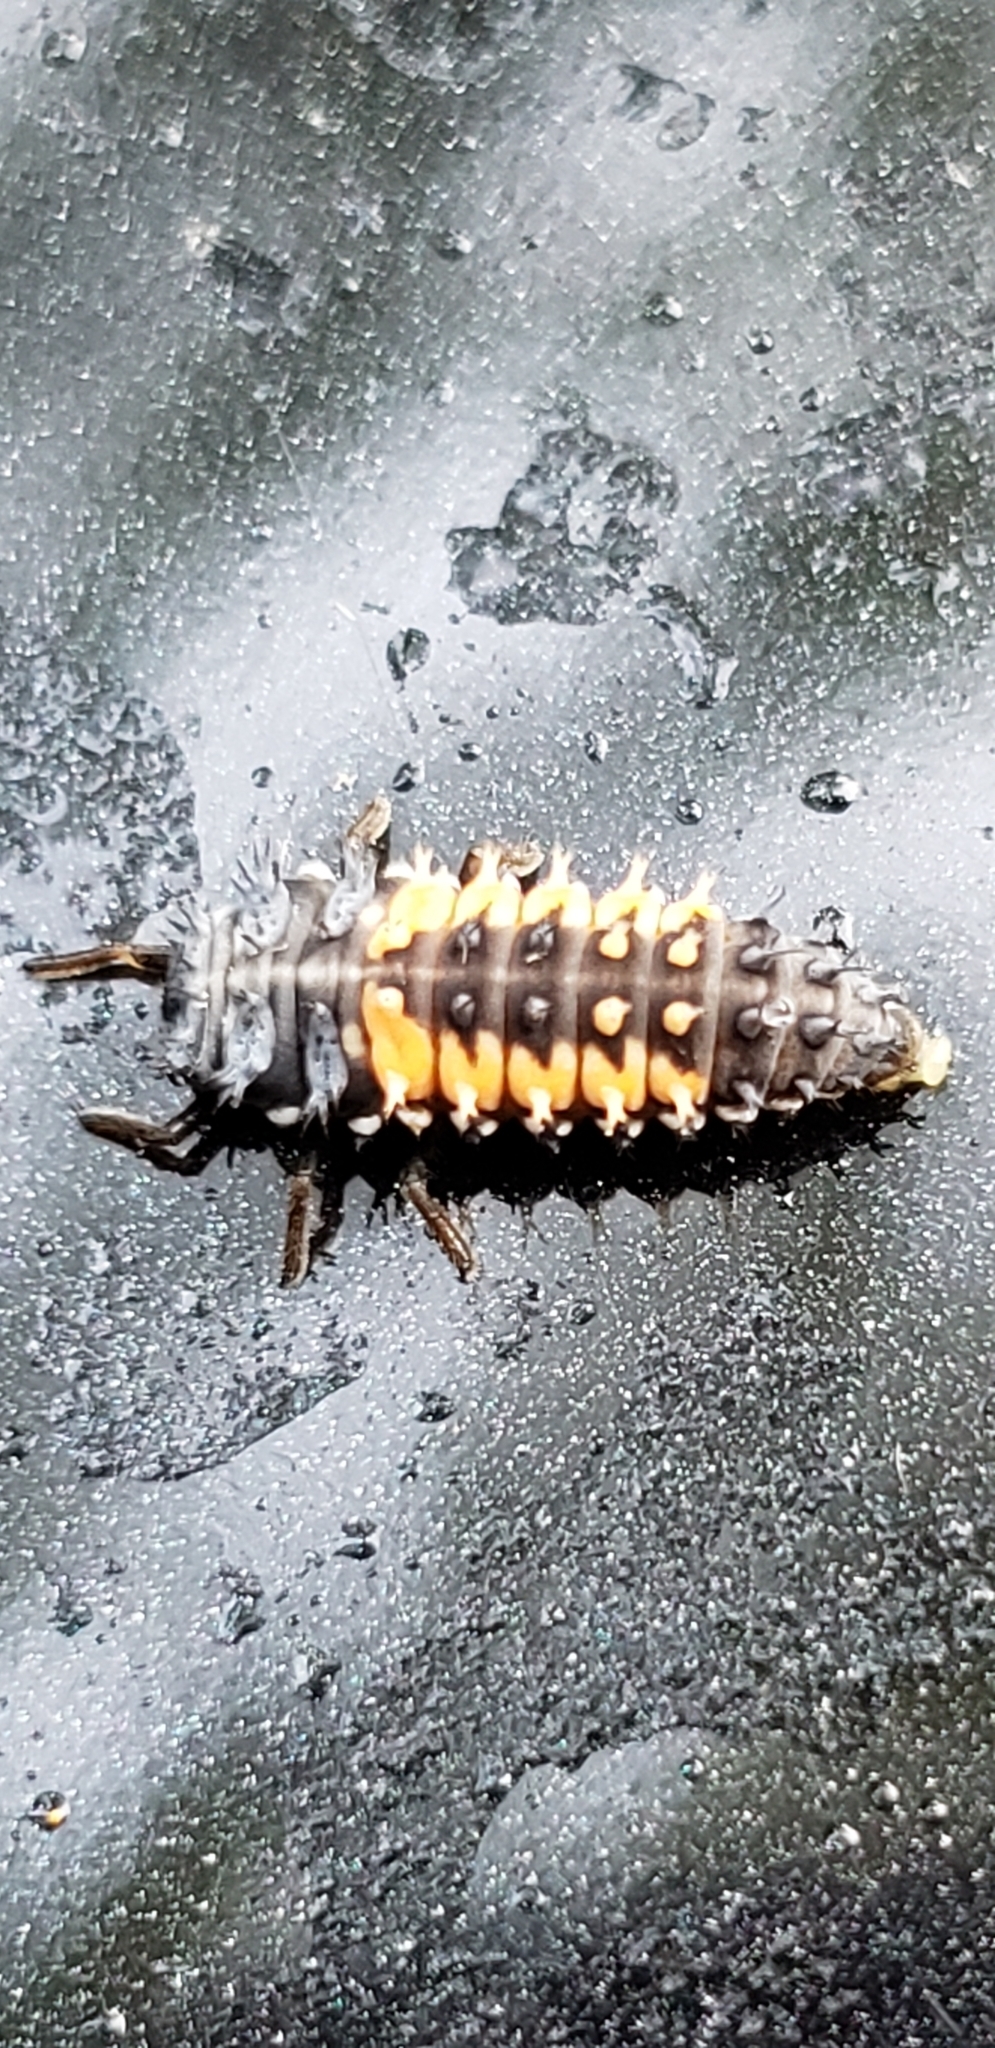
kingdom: Animalia
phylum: Arthropoda
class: Insecta
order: Coleoptera
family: Coccinellidae
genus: Harmonia
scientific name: Harmonia axyridis
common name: Harlequin ladybird
